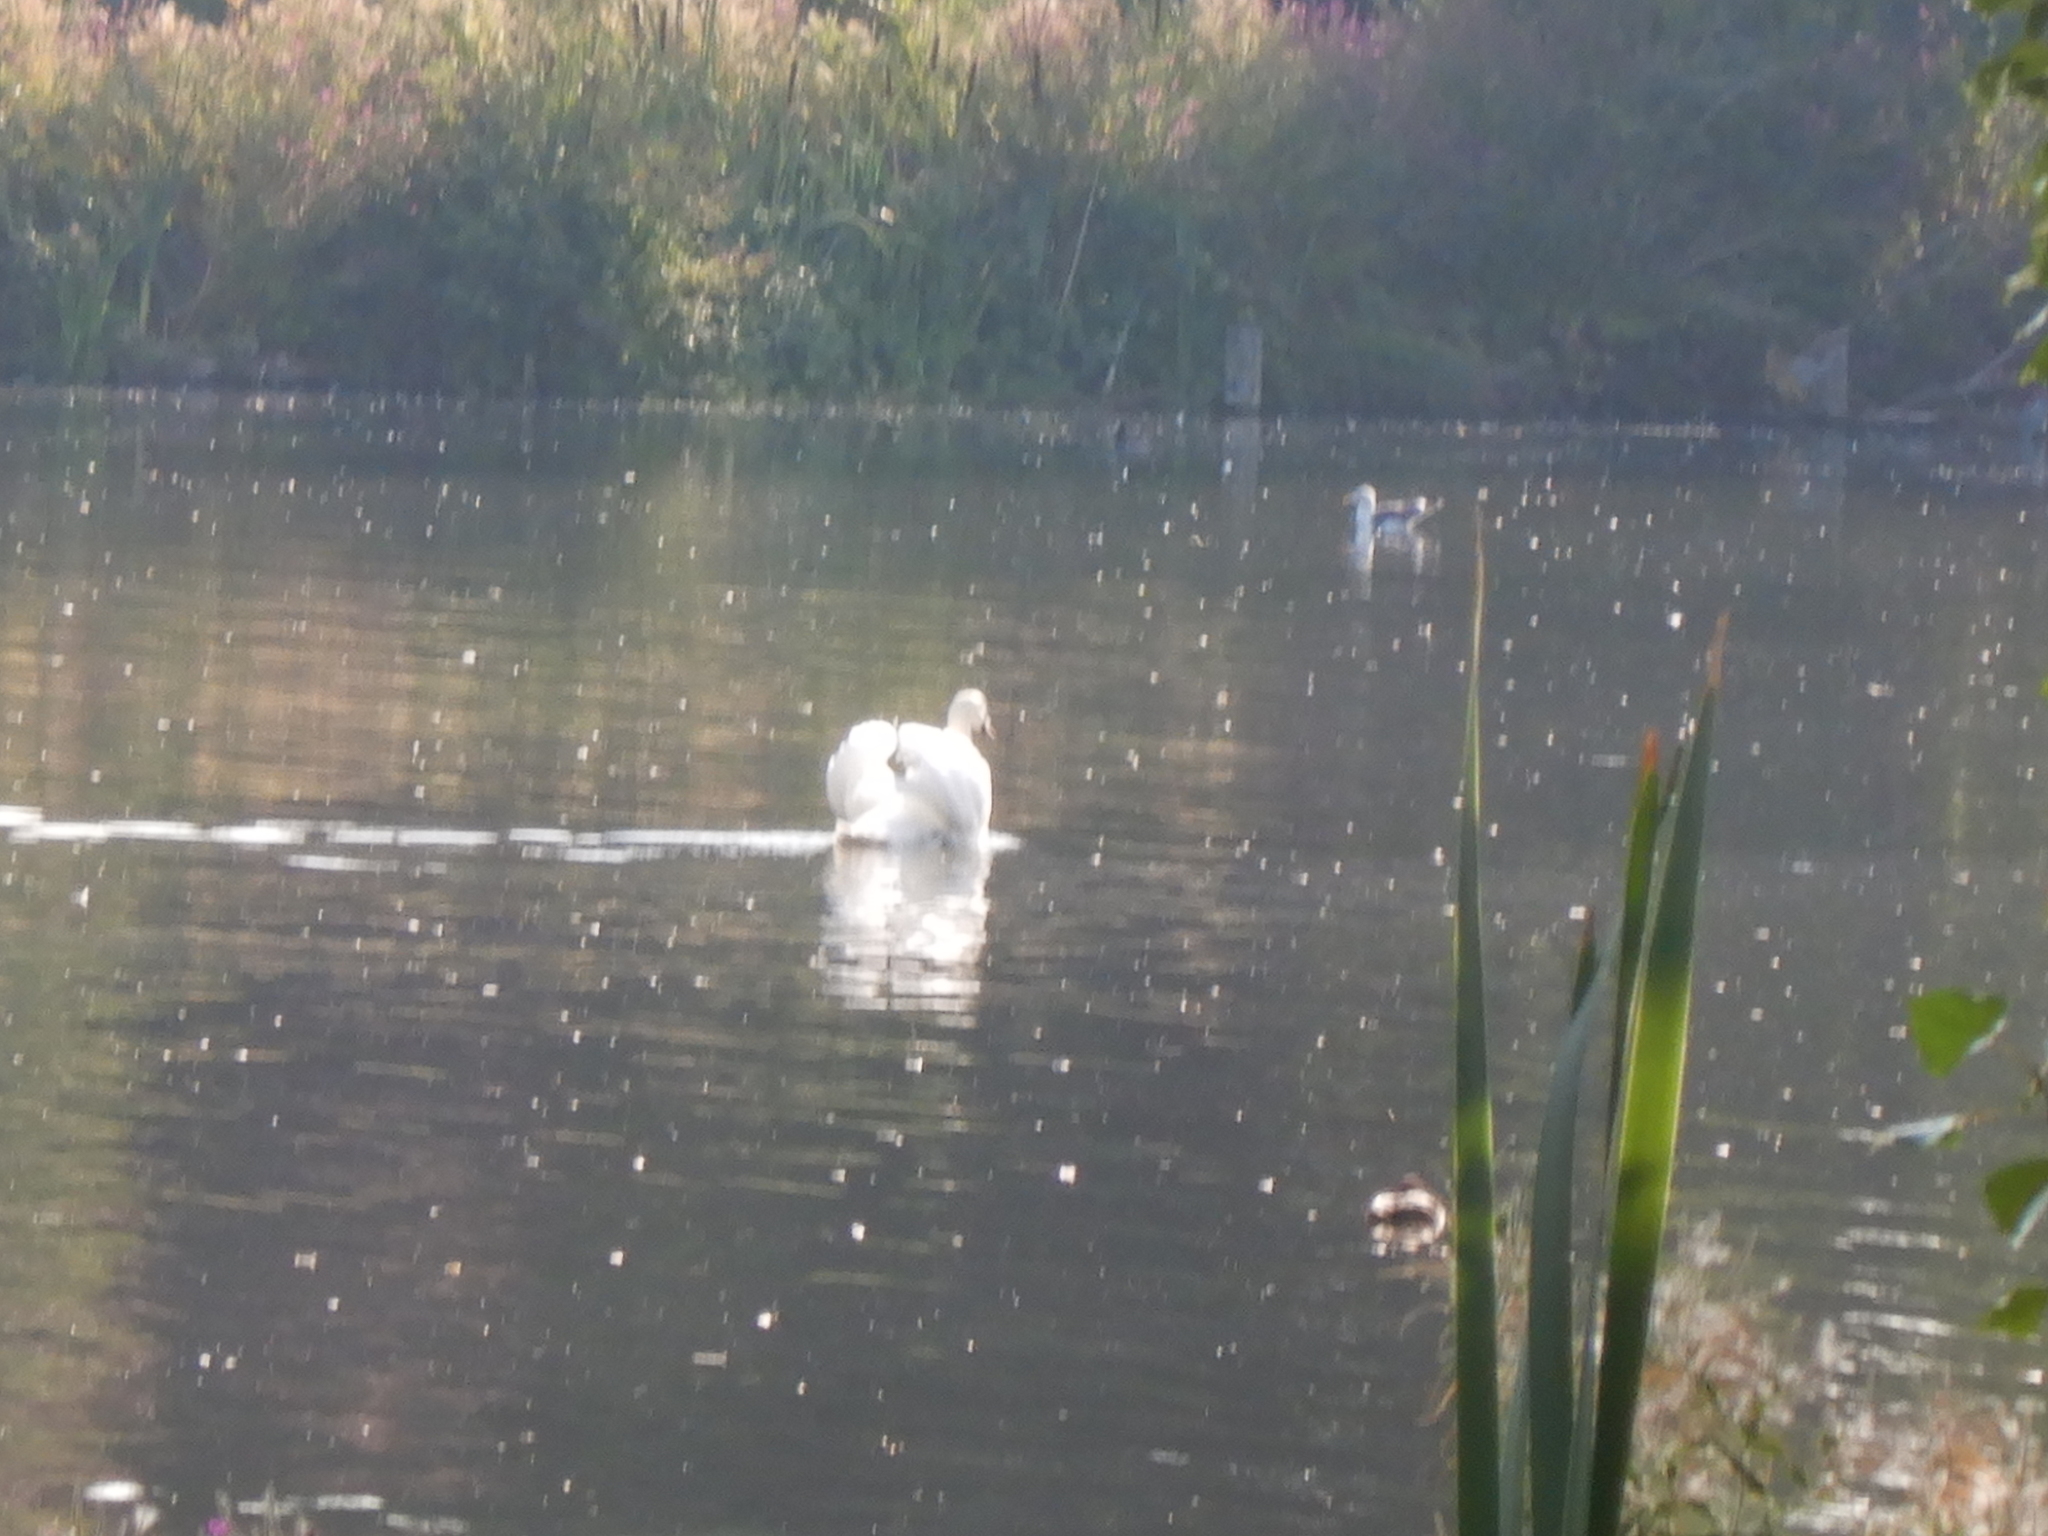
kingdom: Animalia
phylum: Chordata
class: Aves
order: Anseriformes
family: Anatidae
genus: Cygnus
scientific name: Cygnus olor
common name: Mute swan
